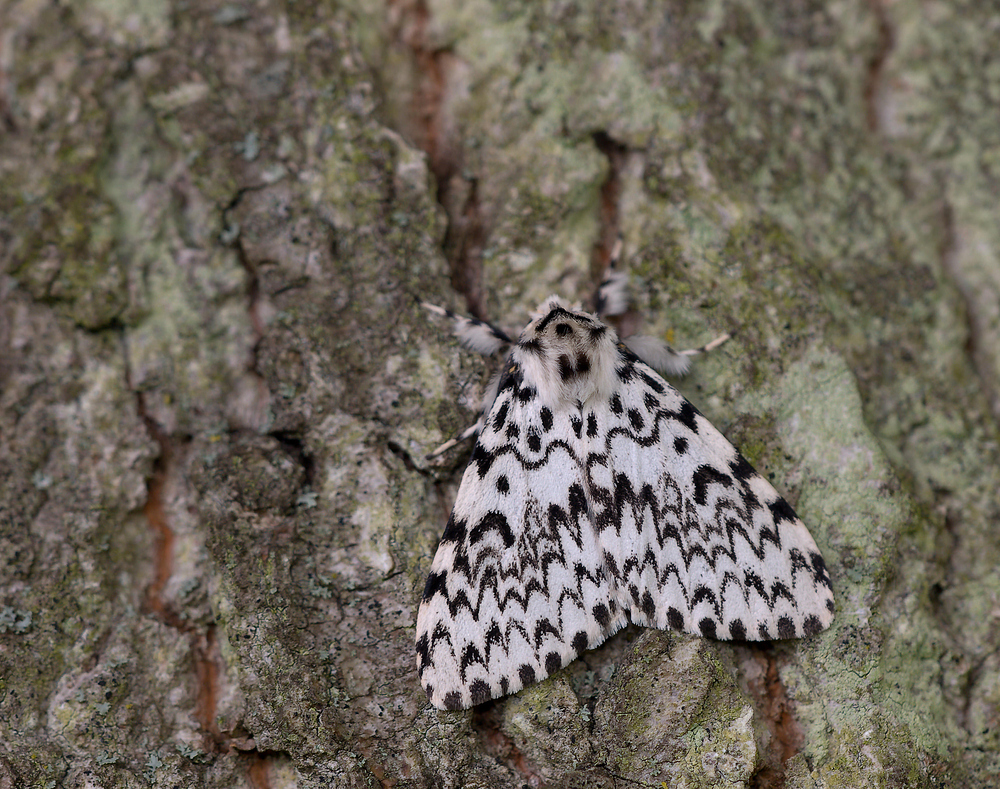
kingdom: Animalia
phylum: Arthropoda
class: Insecta
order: Lepidoptera
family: Erebidae
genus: Lymantria
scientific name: Lymantria monacha
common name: Black arches
